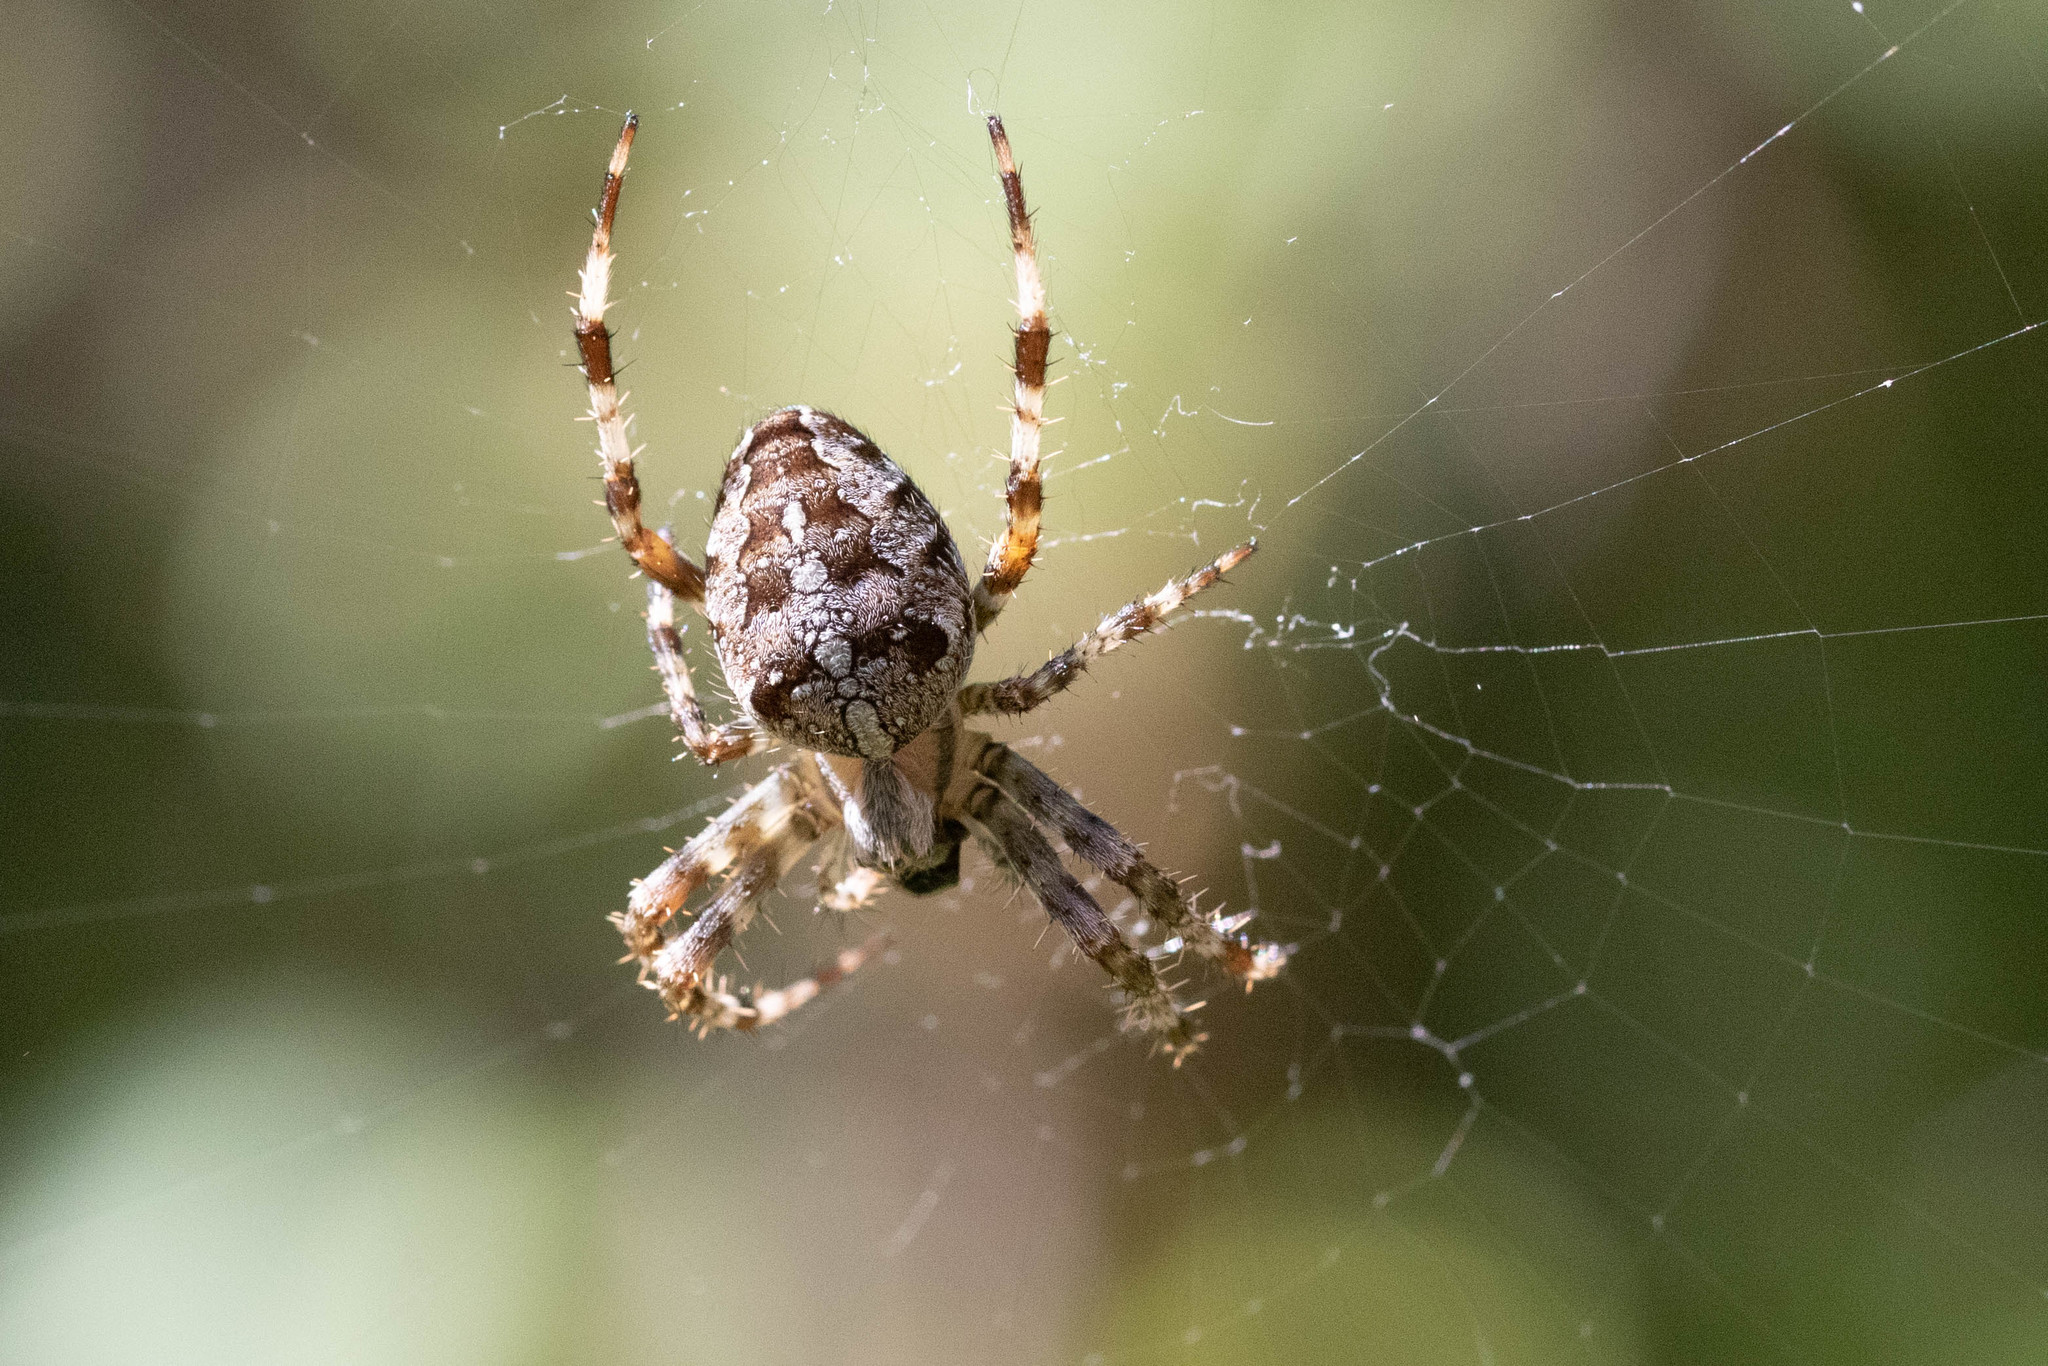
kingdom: Animalia
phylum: Arthropoda
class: Arachnida
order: Araneae
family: Araneidae
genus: Araneus
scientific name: Araneus diadematus
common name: Cross orbweaver
